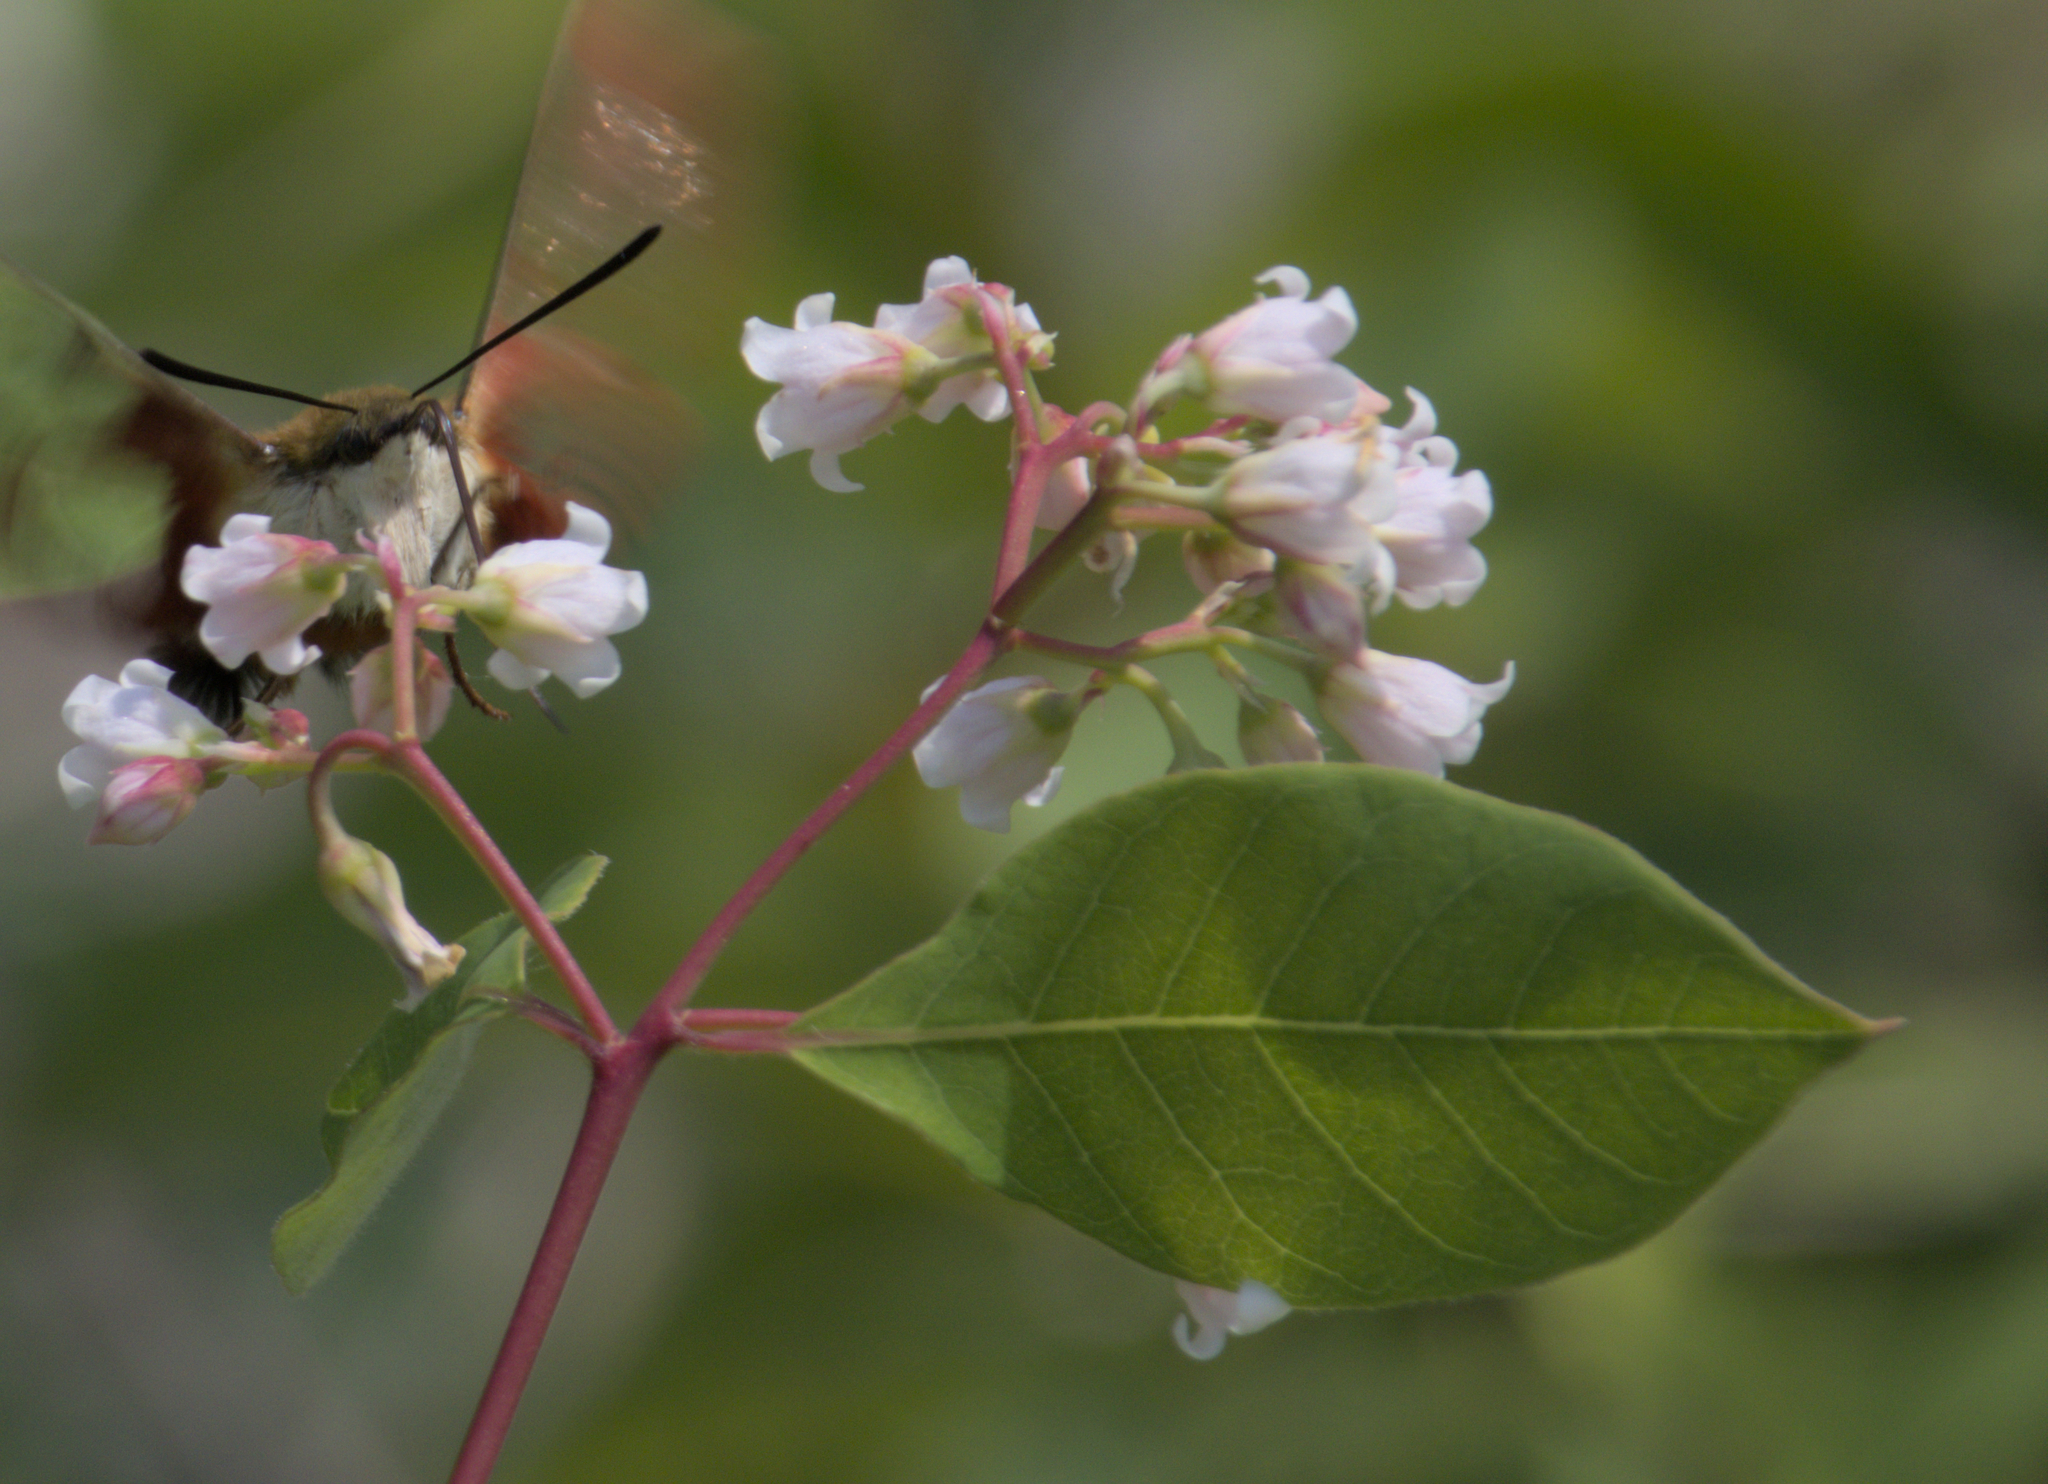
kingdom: Plantae
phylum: Tracheophyta
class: Magnoliopsida
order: Gentianales
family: Apocynaceae
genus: Apocynum
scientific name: Apocynum androsaemifolium
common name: Spreading dogbane
